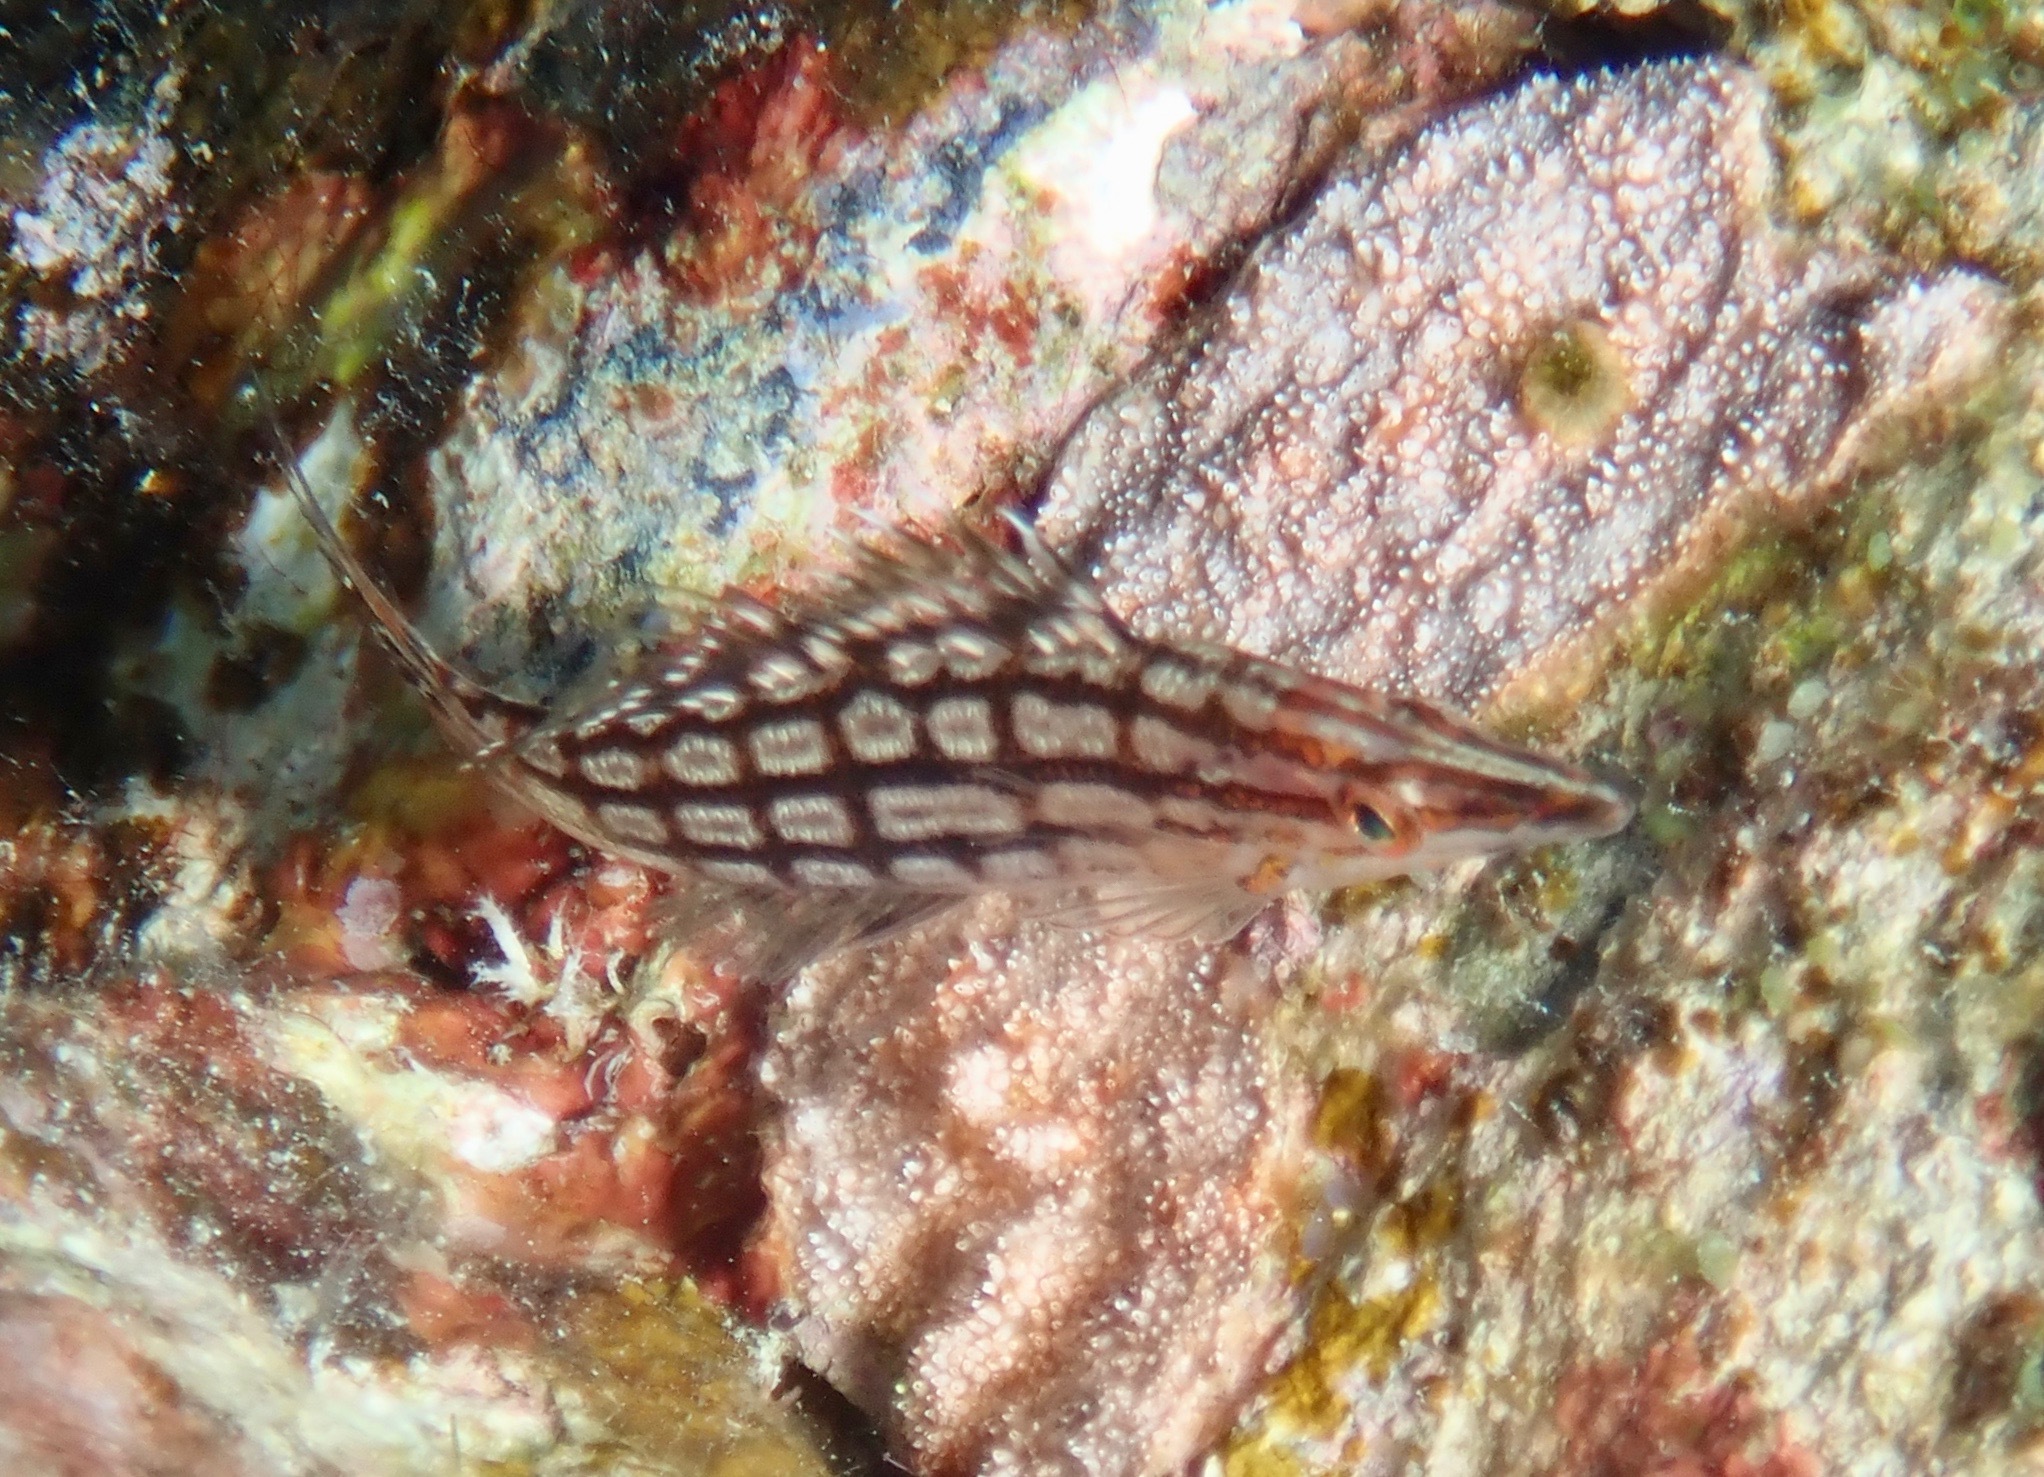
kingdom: Animalia
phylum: Chordata
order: Perciformes
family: Cirrhitidae
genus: Oxycirrhites
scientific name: Oxycirrhites typus
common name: Longnose hawkfish
